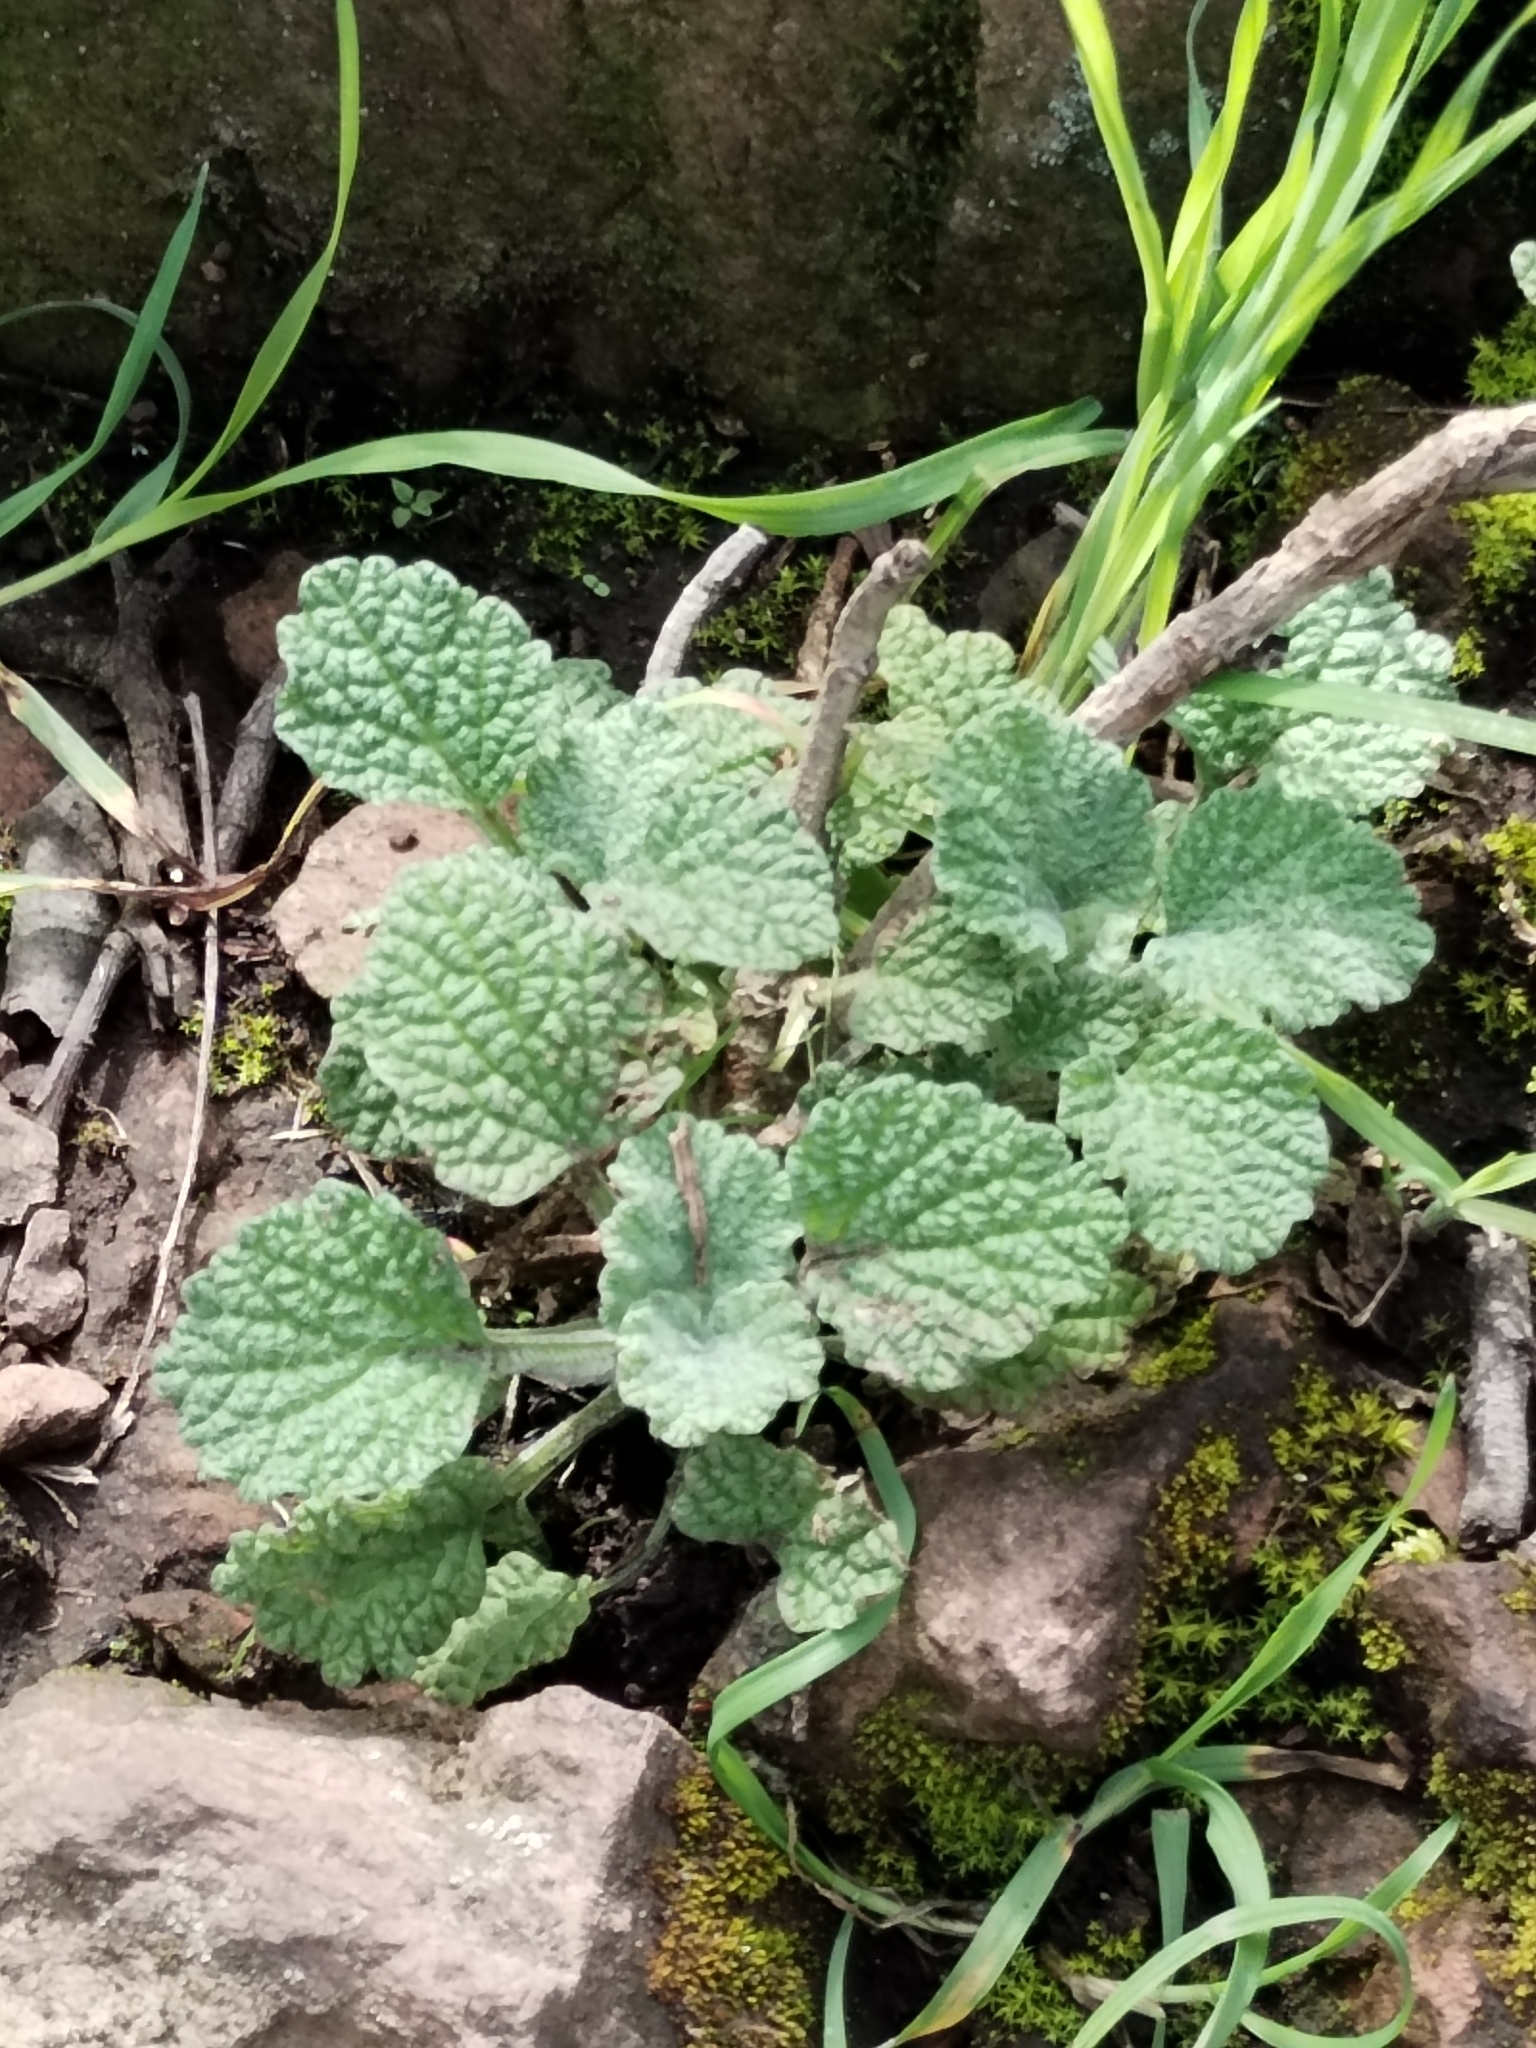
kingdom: Plantae
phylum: Tracheophyta
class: Magnoliopsida
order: Lamiales
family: Lamiaceae
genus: Marrubium
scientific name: Marrubium vulgare
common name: Horehound
